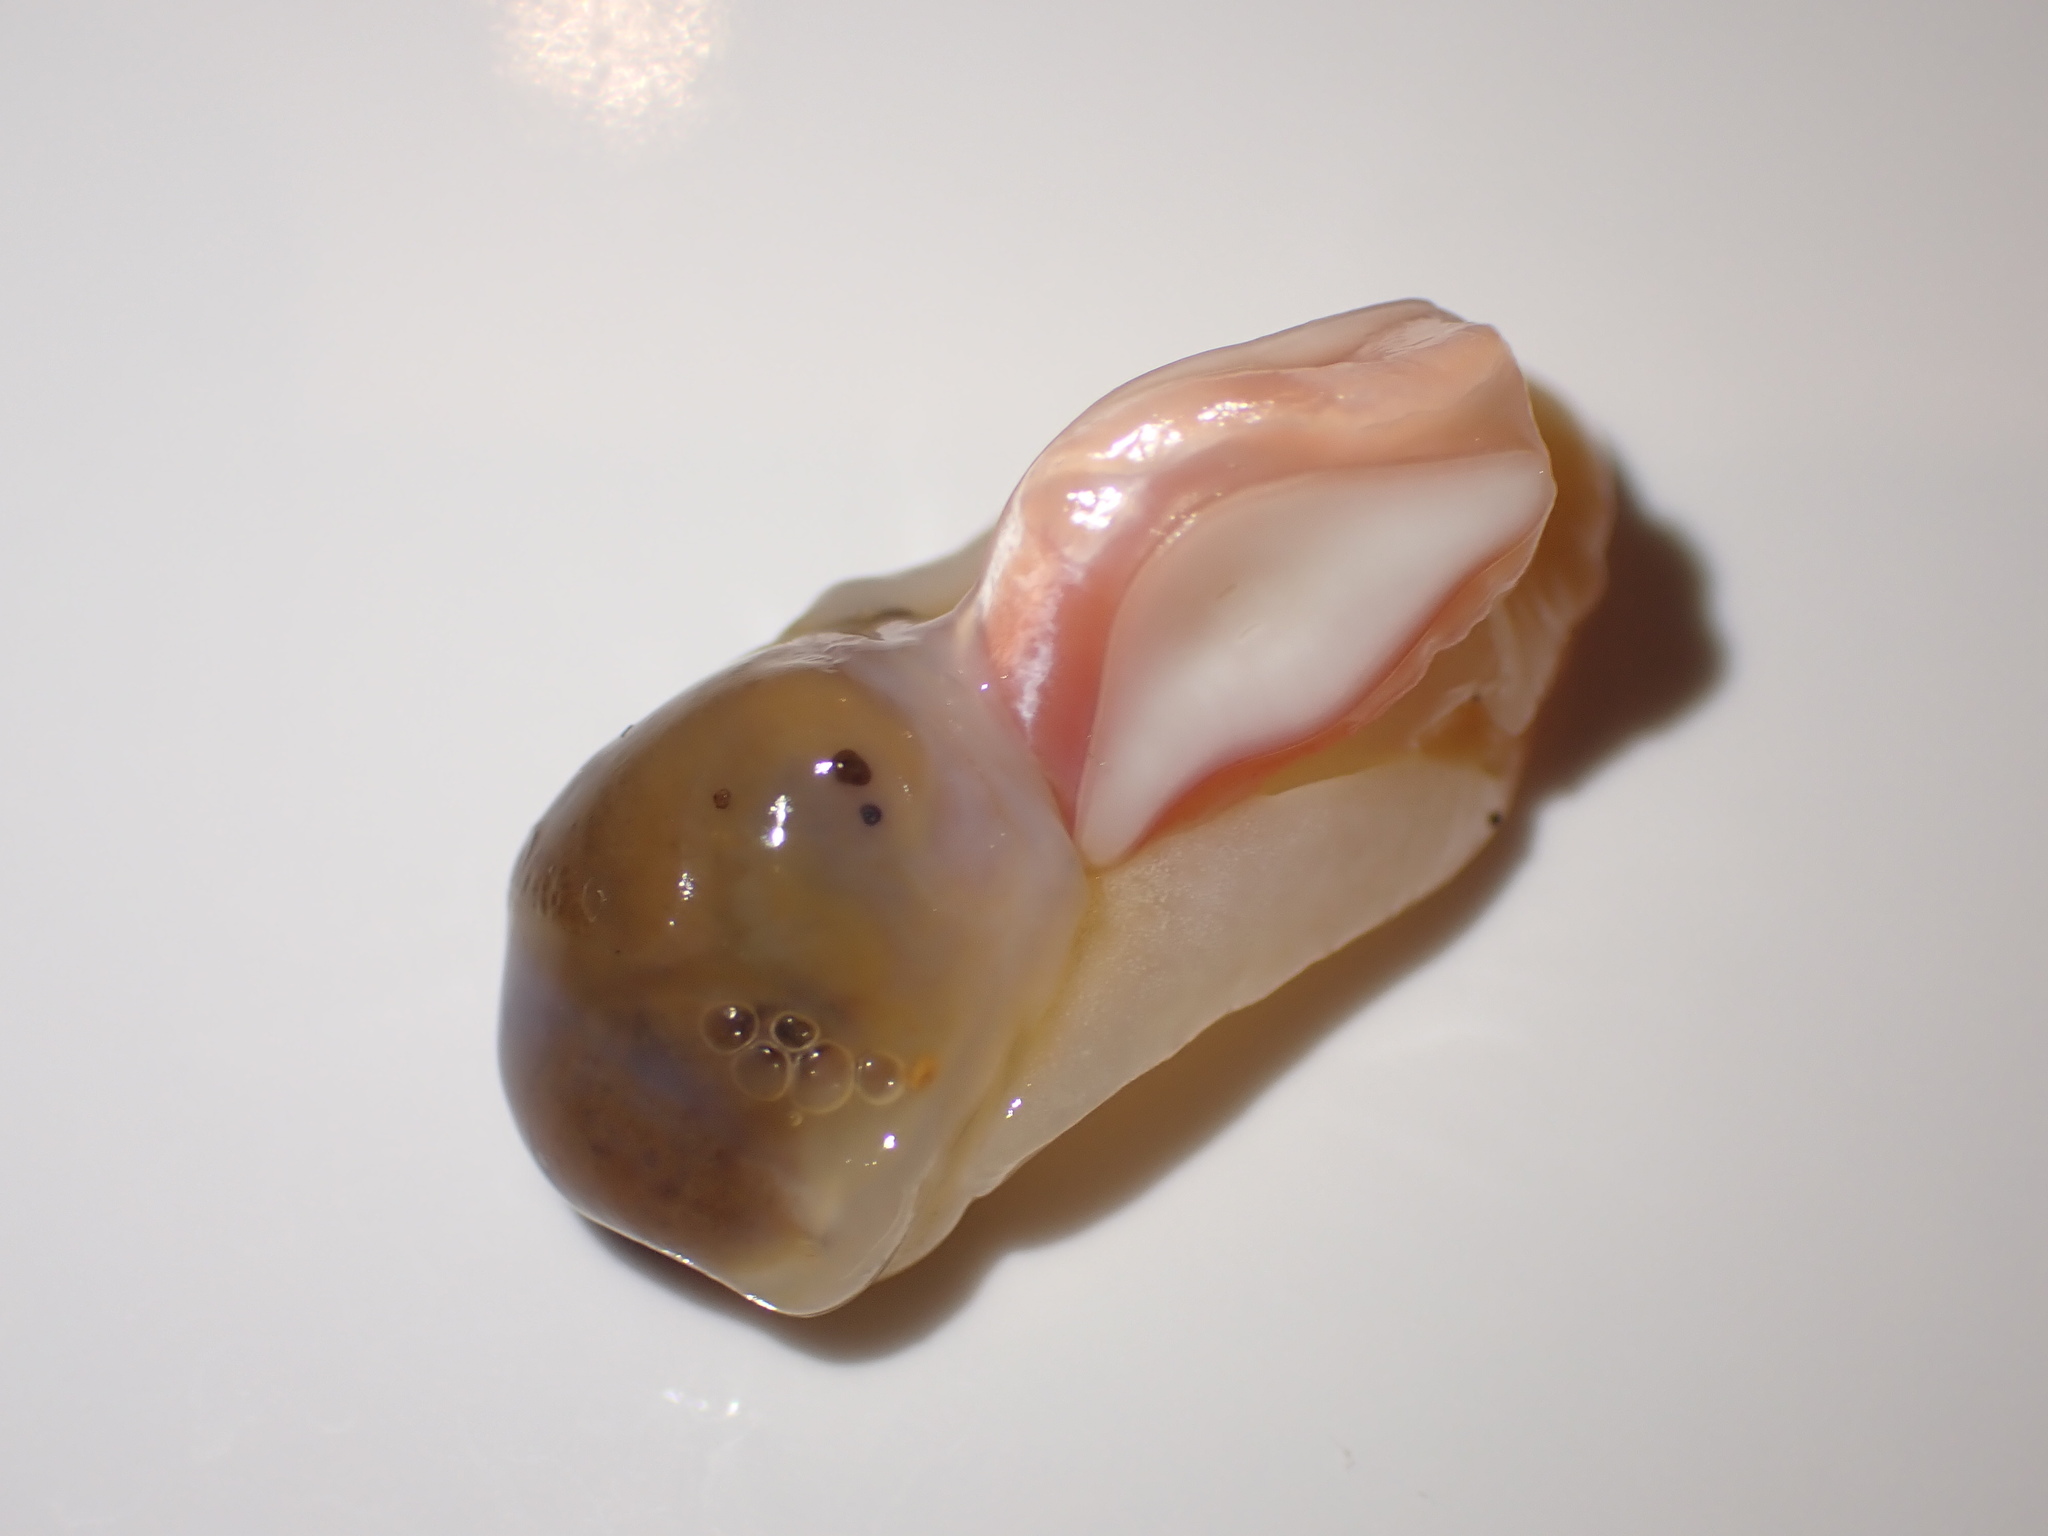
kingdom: Animalia
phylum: Mollusca
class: Gastropoda
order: Cephalaspidea
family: Philinidae
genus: Philine
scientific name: Philine
